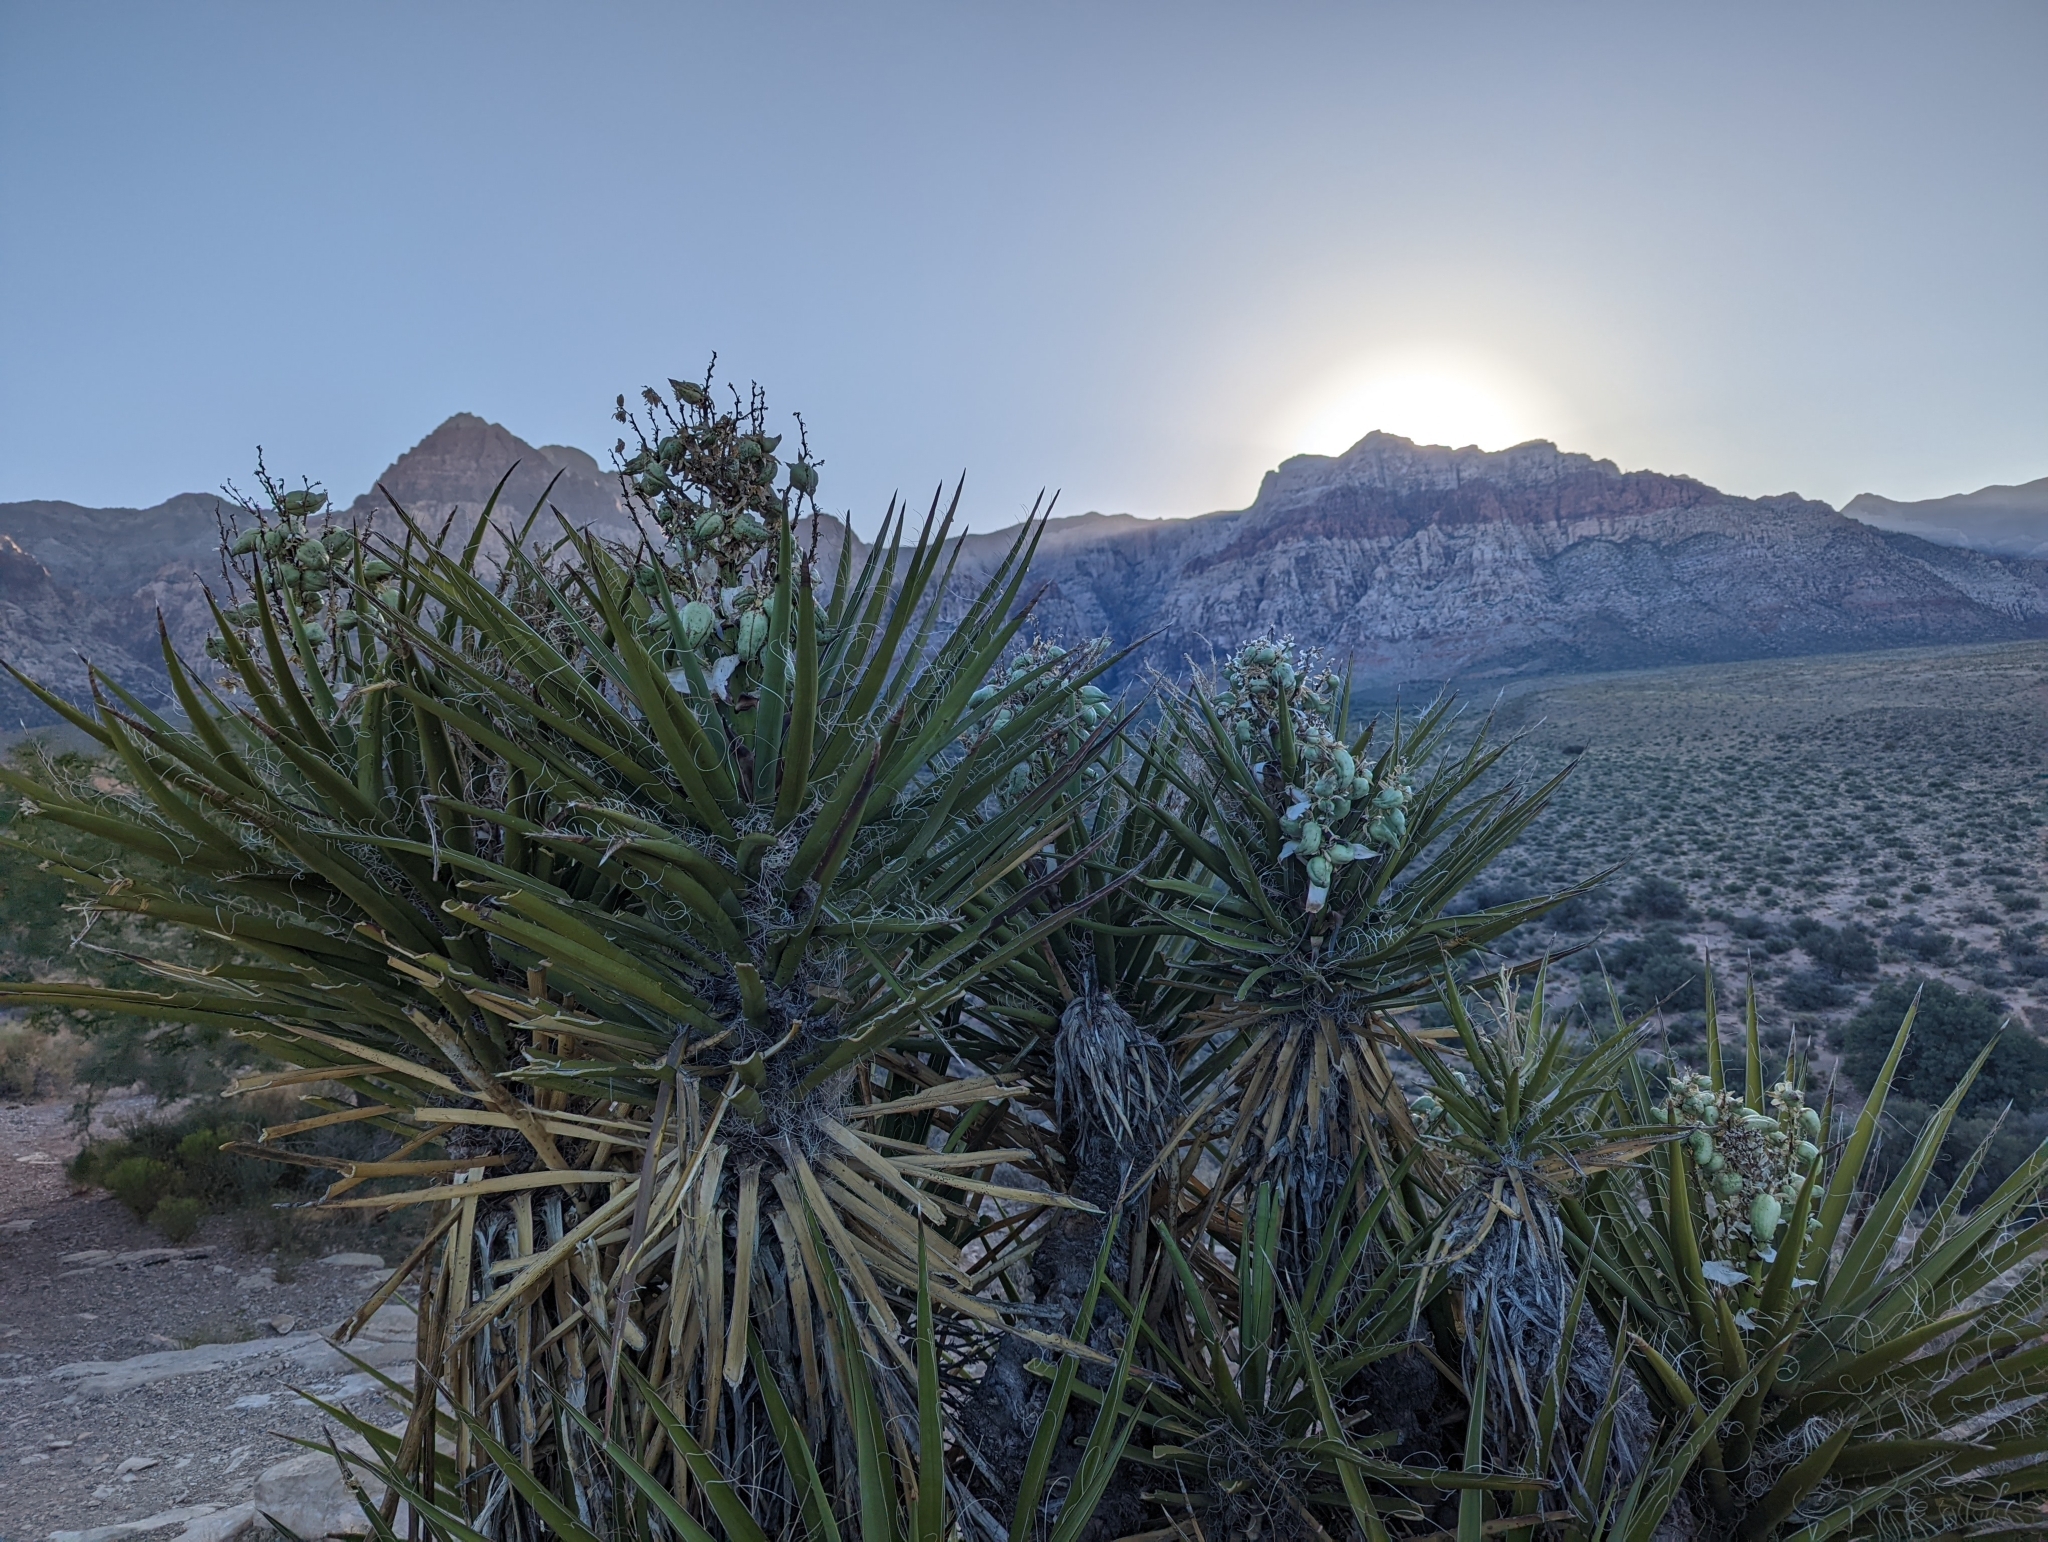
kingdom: Plantae
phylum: Tracheophyta
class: Liliopsida
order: Asparagales
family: Asparagaceae
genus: Yucca
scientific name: Yucca schidigera
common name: Mojave yucca
